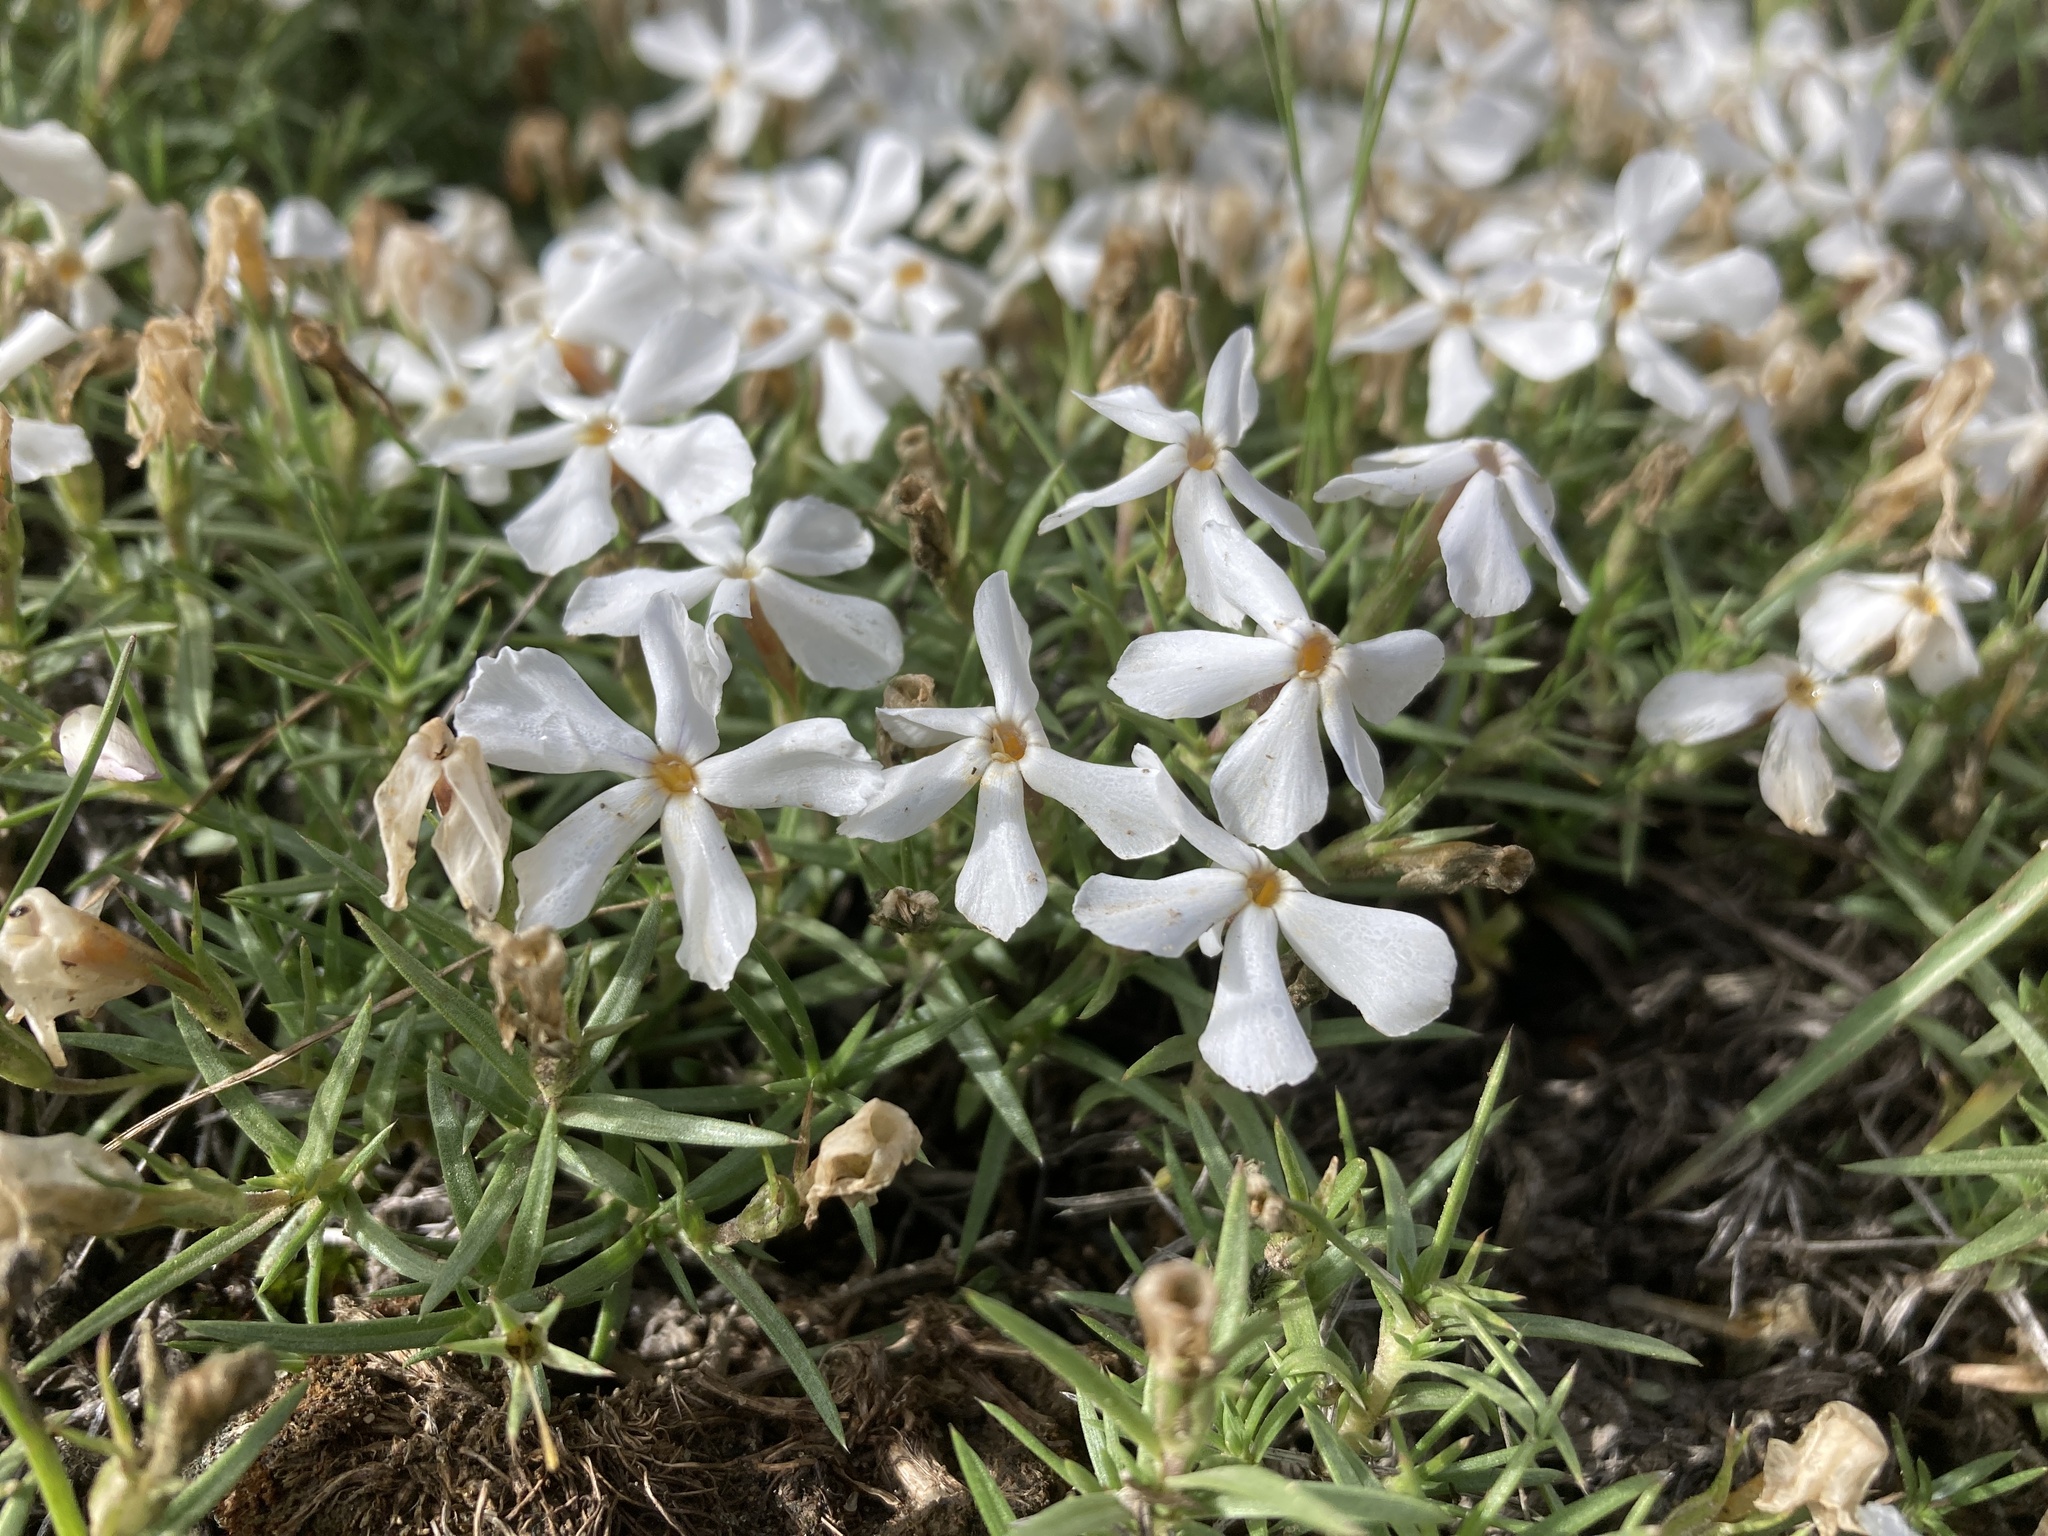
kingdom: Plantae
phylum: Tracheophyta
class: Magnoliopsida
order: Ericales
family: Polemoniaceae
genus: Phlox
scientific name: Phlox multiflora
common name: Rocky mountain phlox
